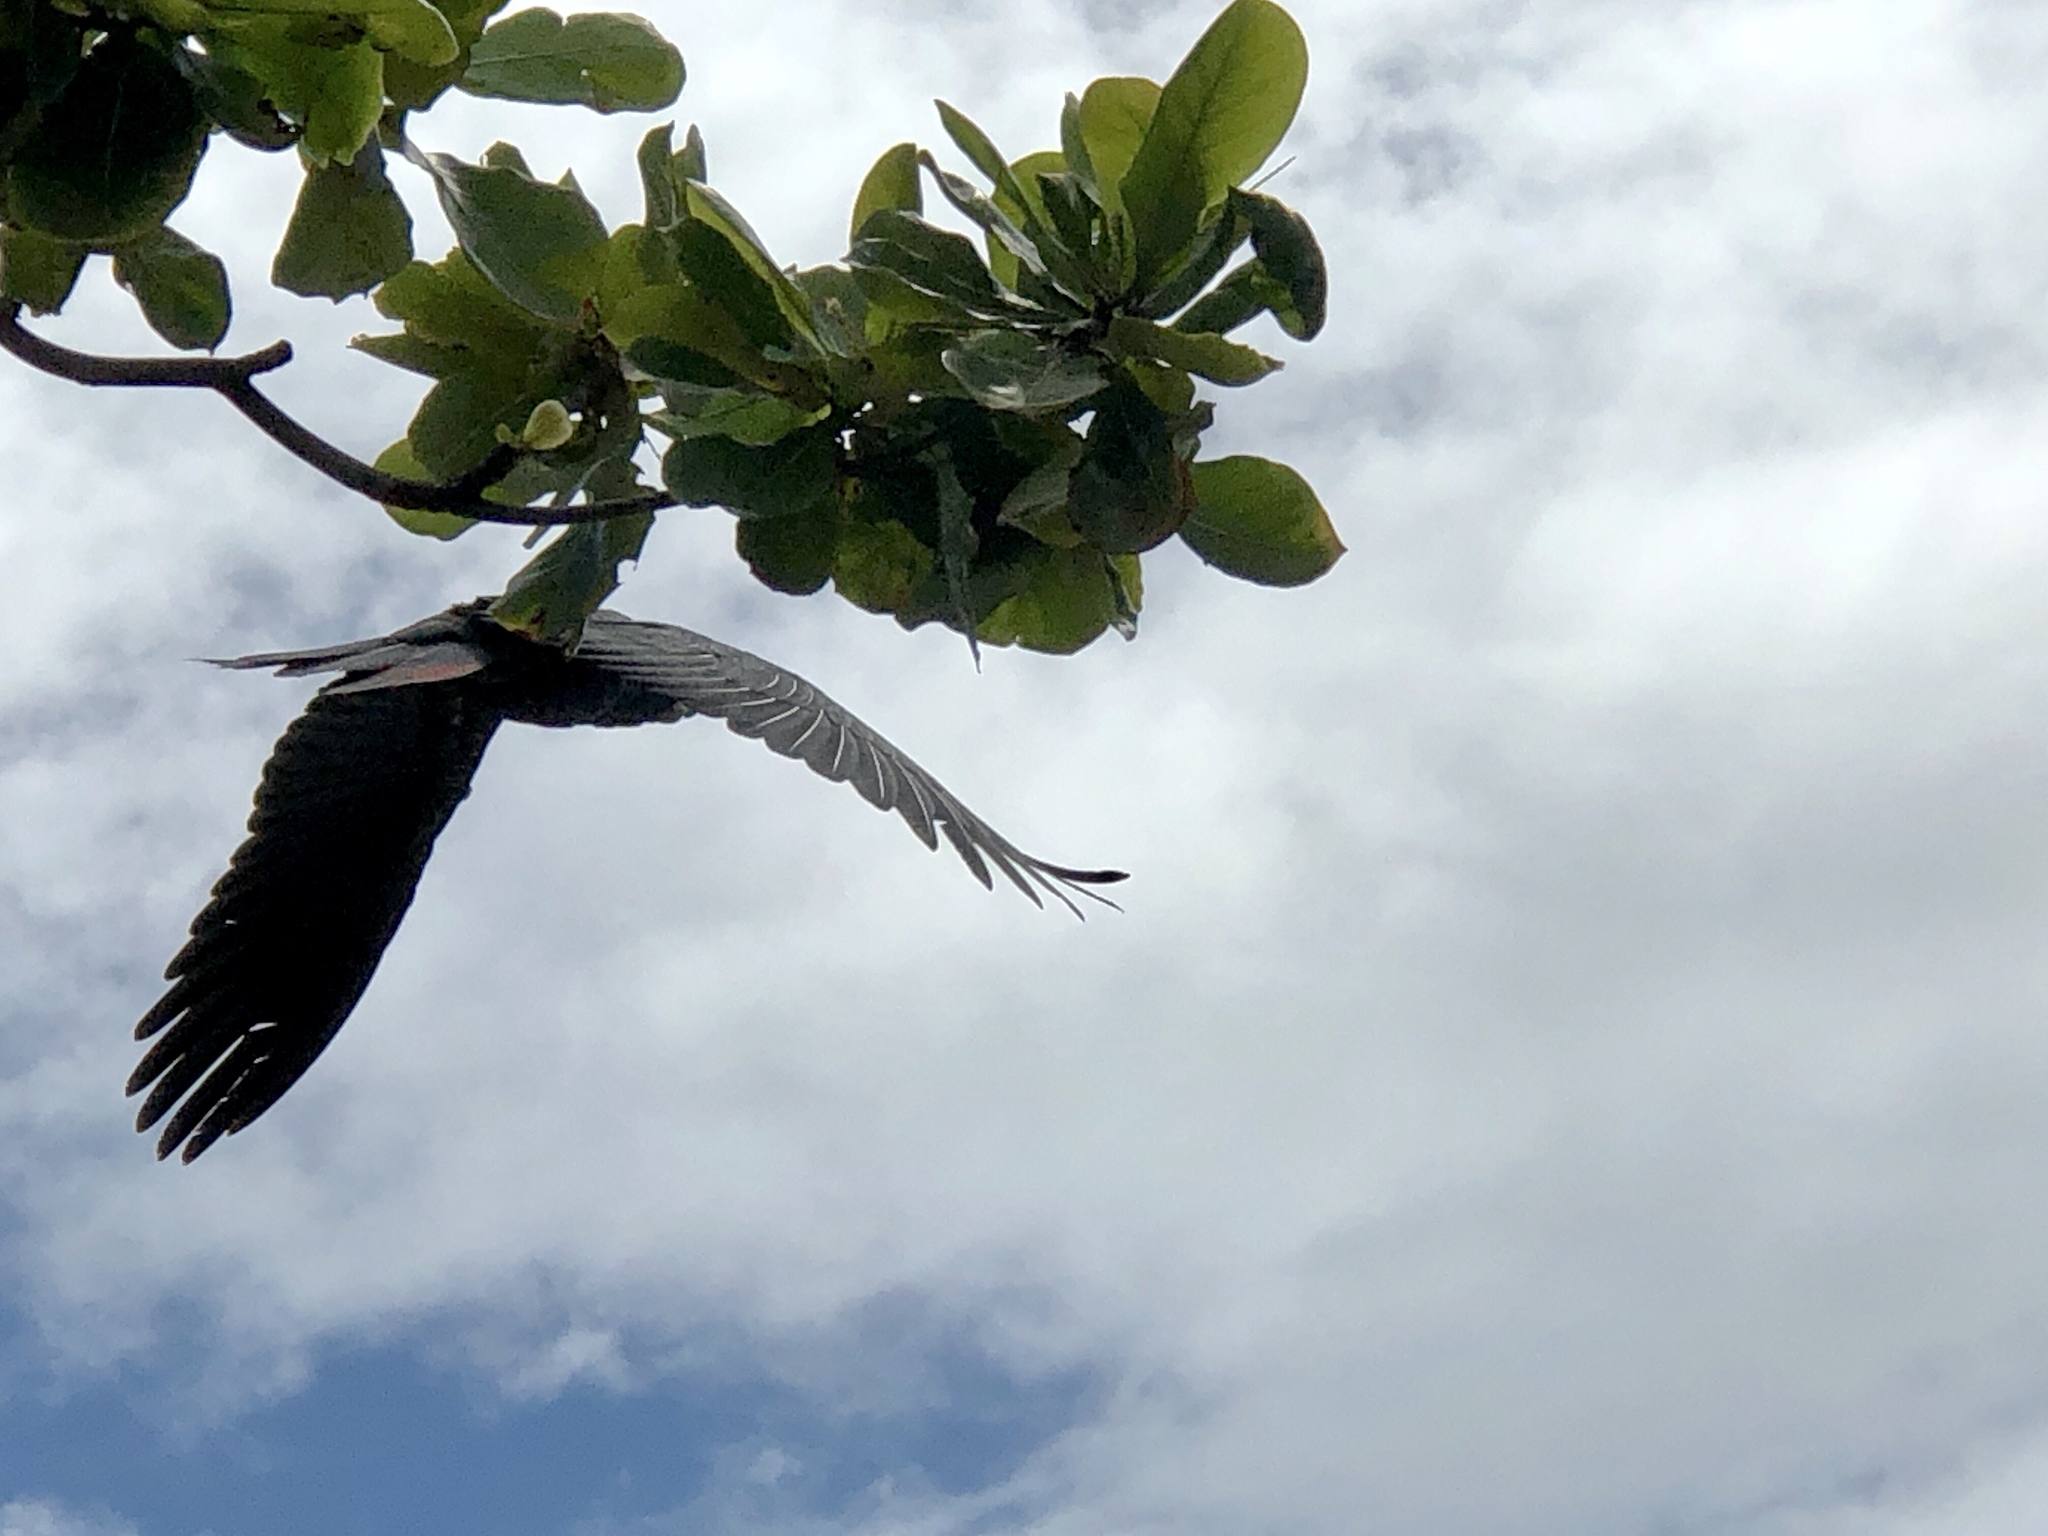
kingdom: Animalia
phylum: Chordata
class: Aves
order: Psittaciformes
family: Psittacidae
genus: Calyptorhynchus
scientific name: Calyptorhynchus banksii
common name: Red-tailed black cockatoo
